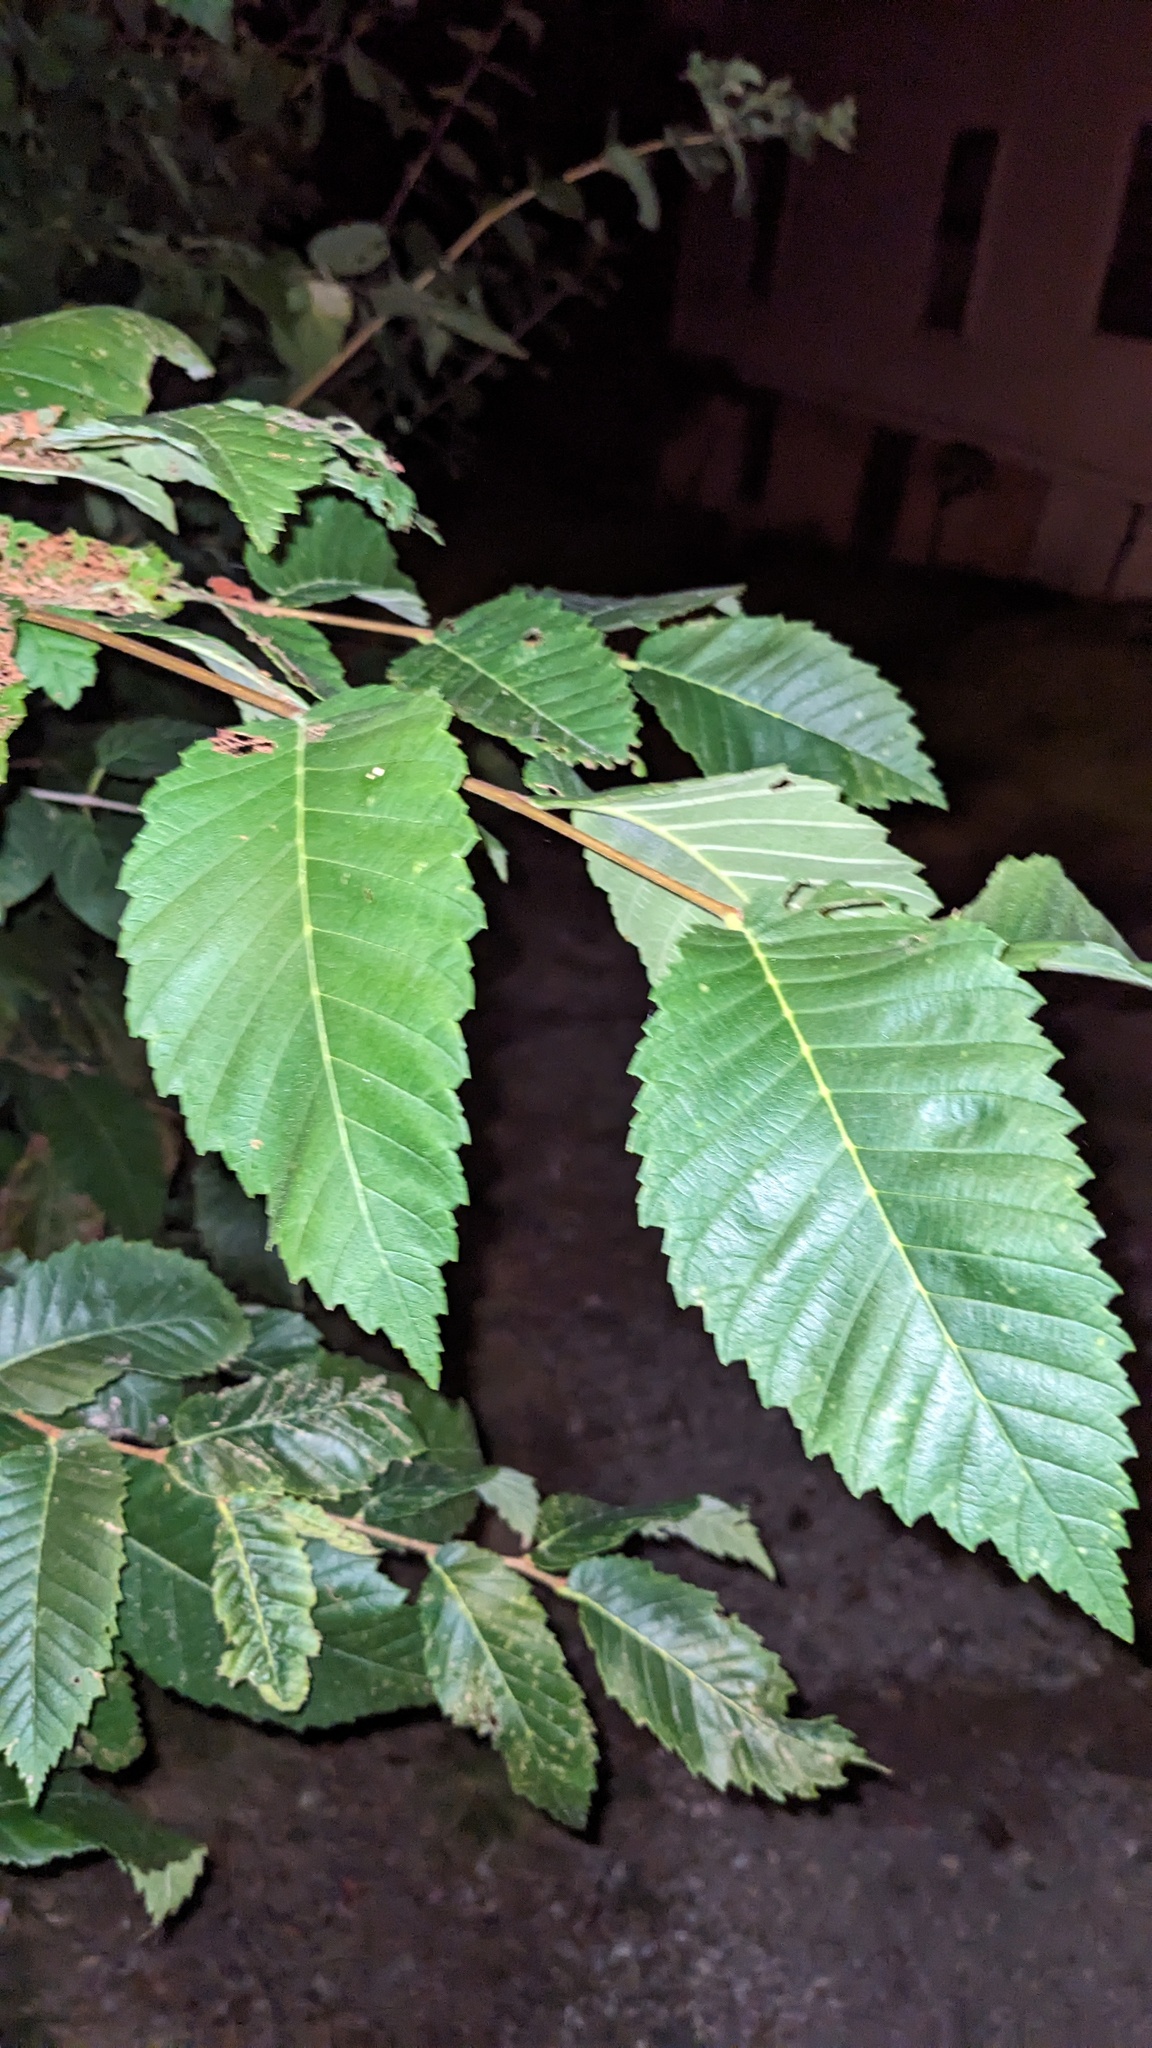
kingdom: Plantae
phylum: Tracheophyta
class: Magnoliopsida
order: Rosales
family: Ulmaceae
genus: Ulmus
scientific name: Ulmus pumila
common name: Siberian elm
